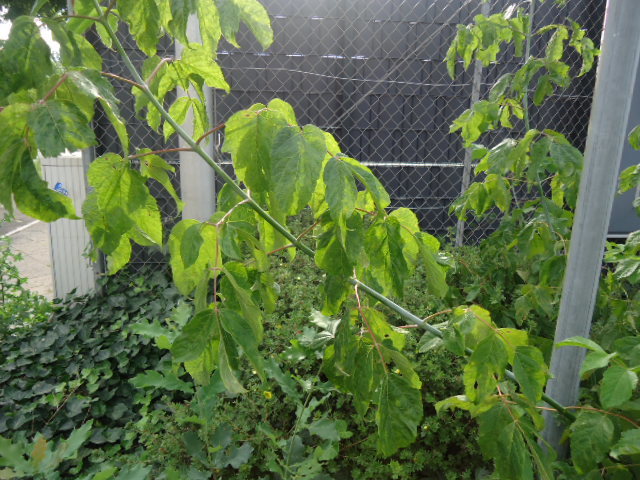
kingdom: Plantae
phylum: Tracheophyta
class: Magnoliopsida
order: Sapindales
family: Sapindaceae
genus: Acer
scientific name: Acer negundo
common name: Ashleaf maple
